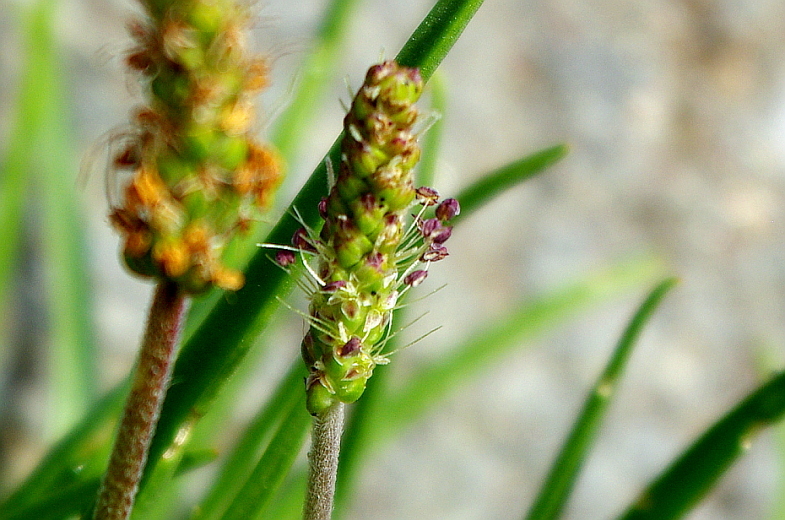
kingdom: Plantae
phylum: Tracheophyta
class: Magnoliopsida
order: Lamiales
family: Plantaginaceae
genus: Plantago
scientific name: Plantago maritima
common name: Sea plantain
